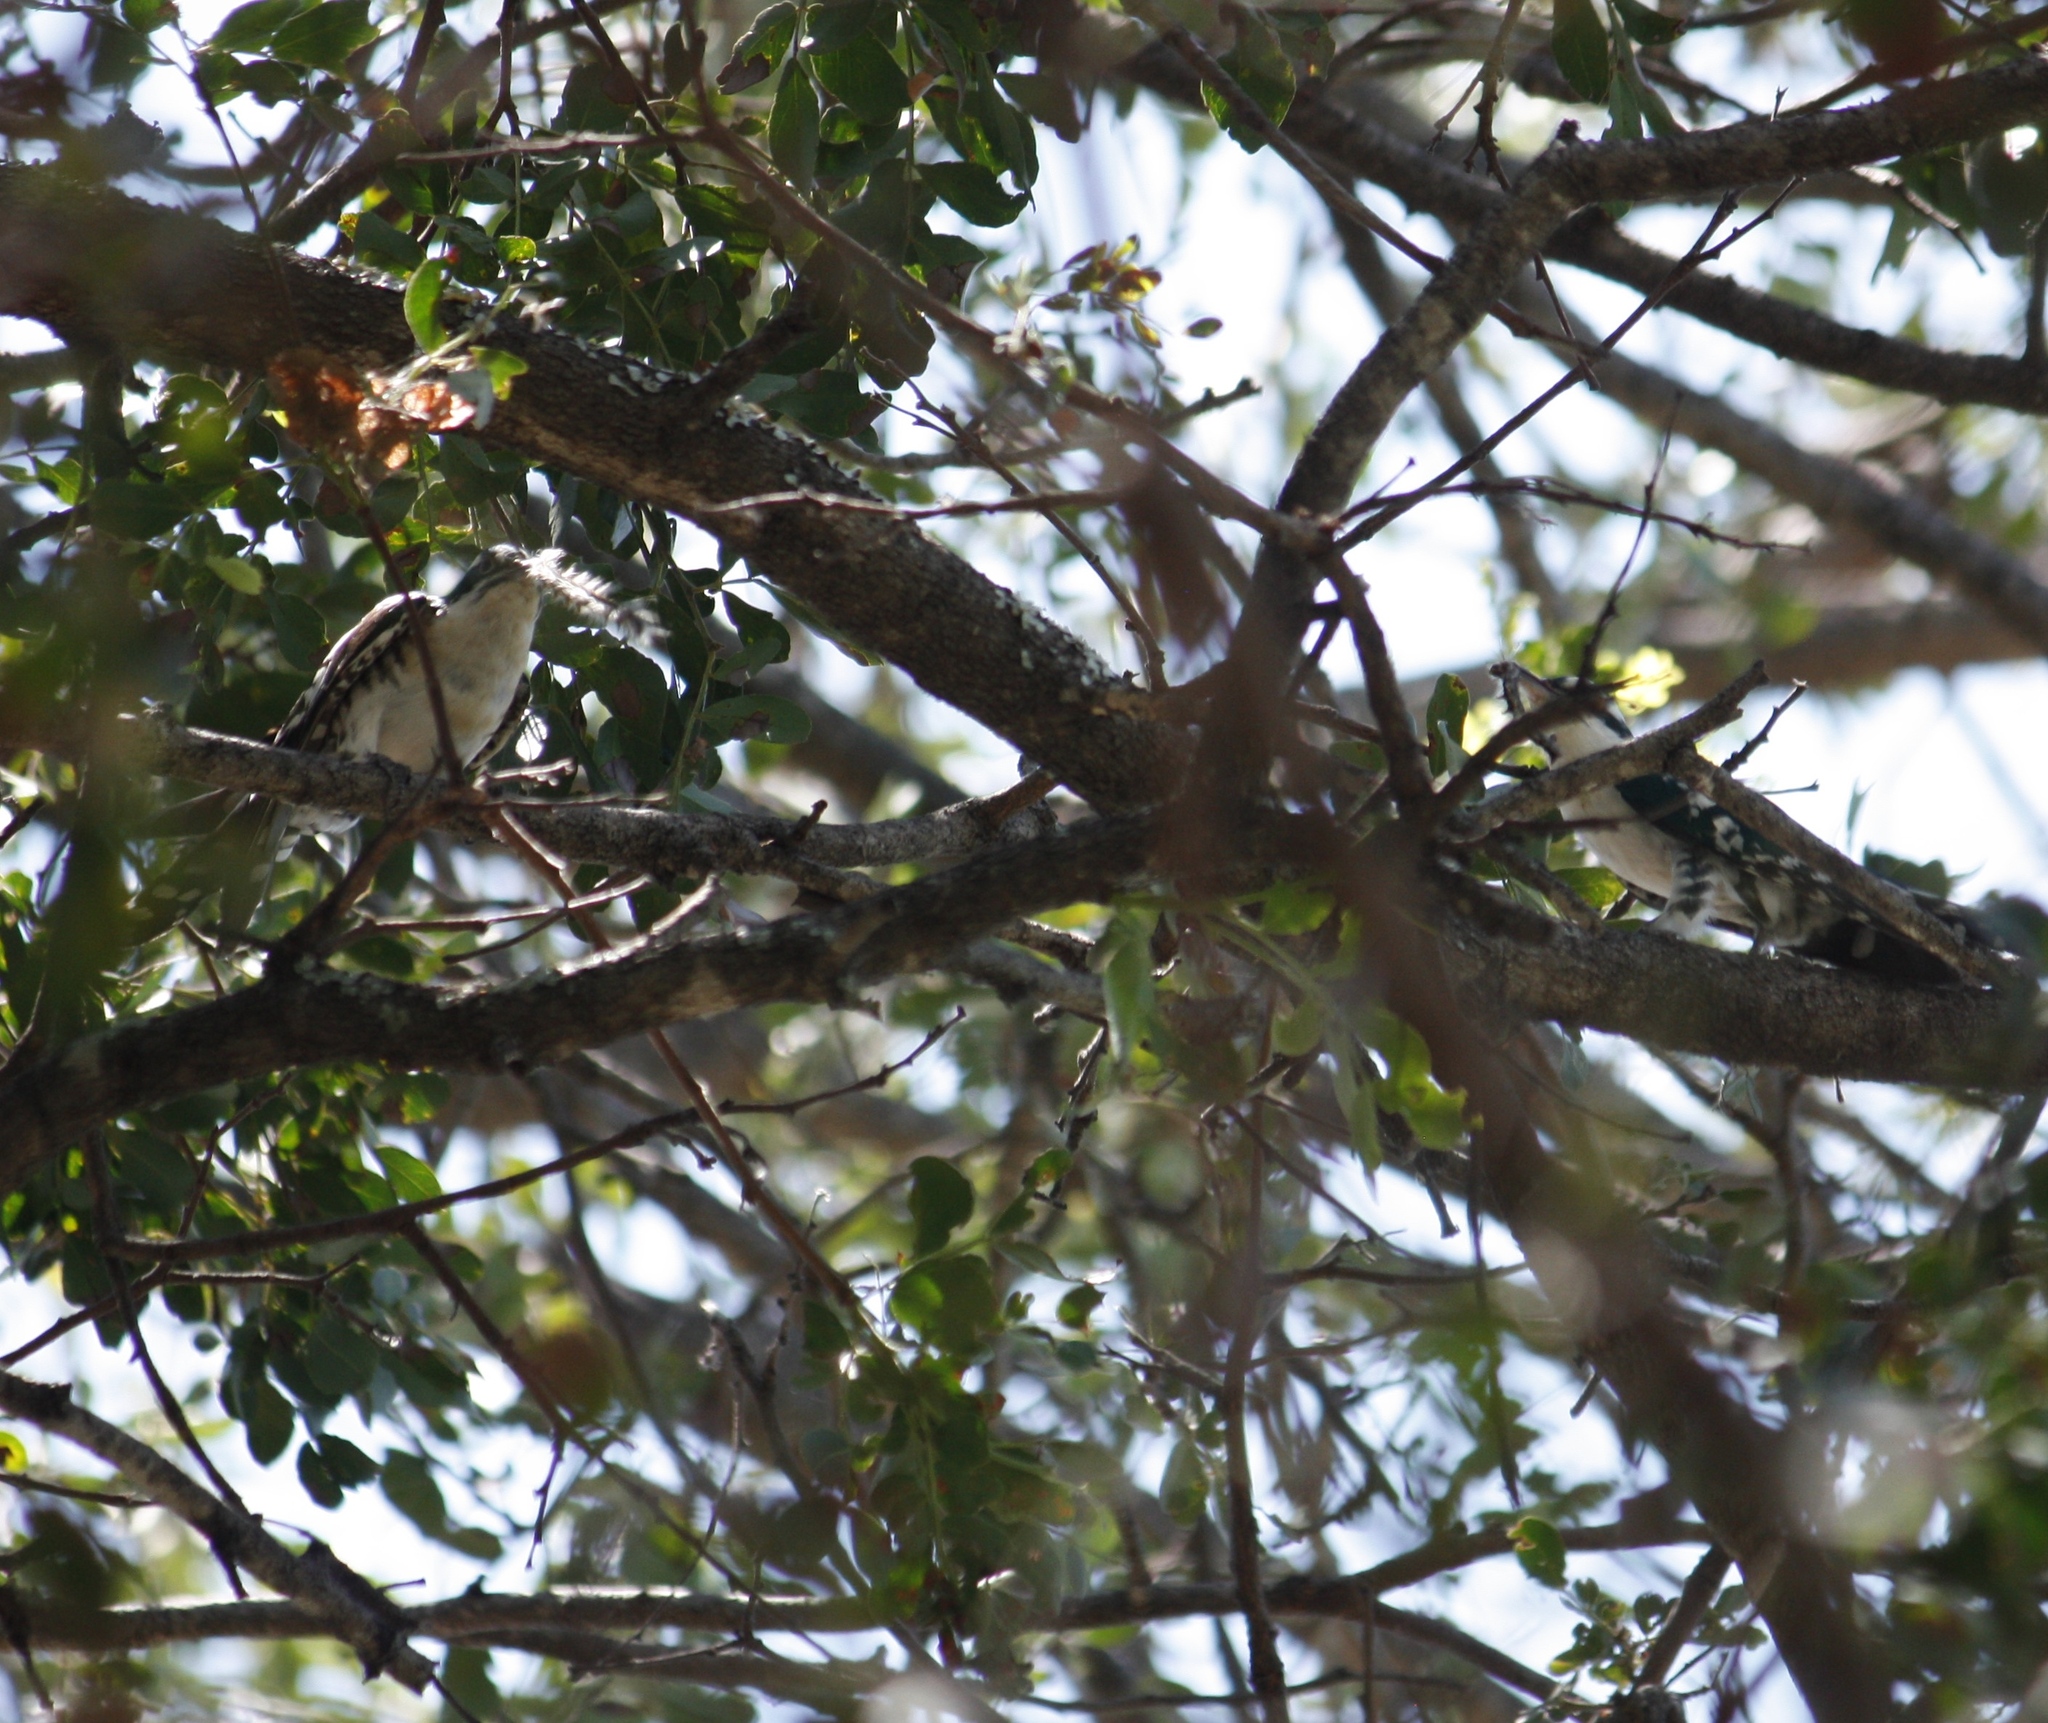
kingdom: Animalia
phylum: Chordata
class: Aves
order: Cuculiformes
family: Cuculidae
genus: Chrysococcyx
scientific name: Chrysococcyx caprius
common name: Diederik cuckoo
